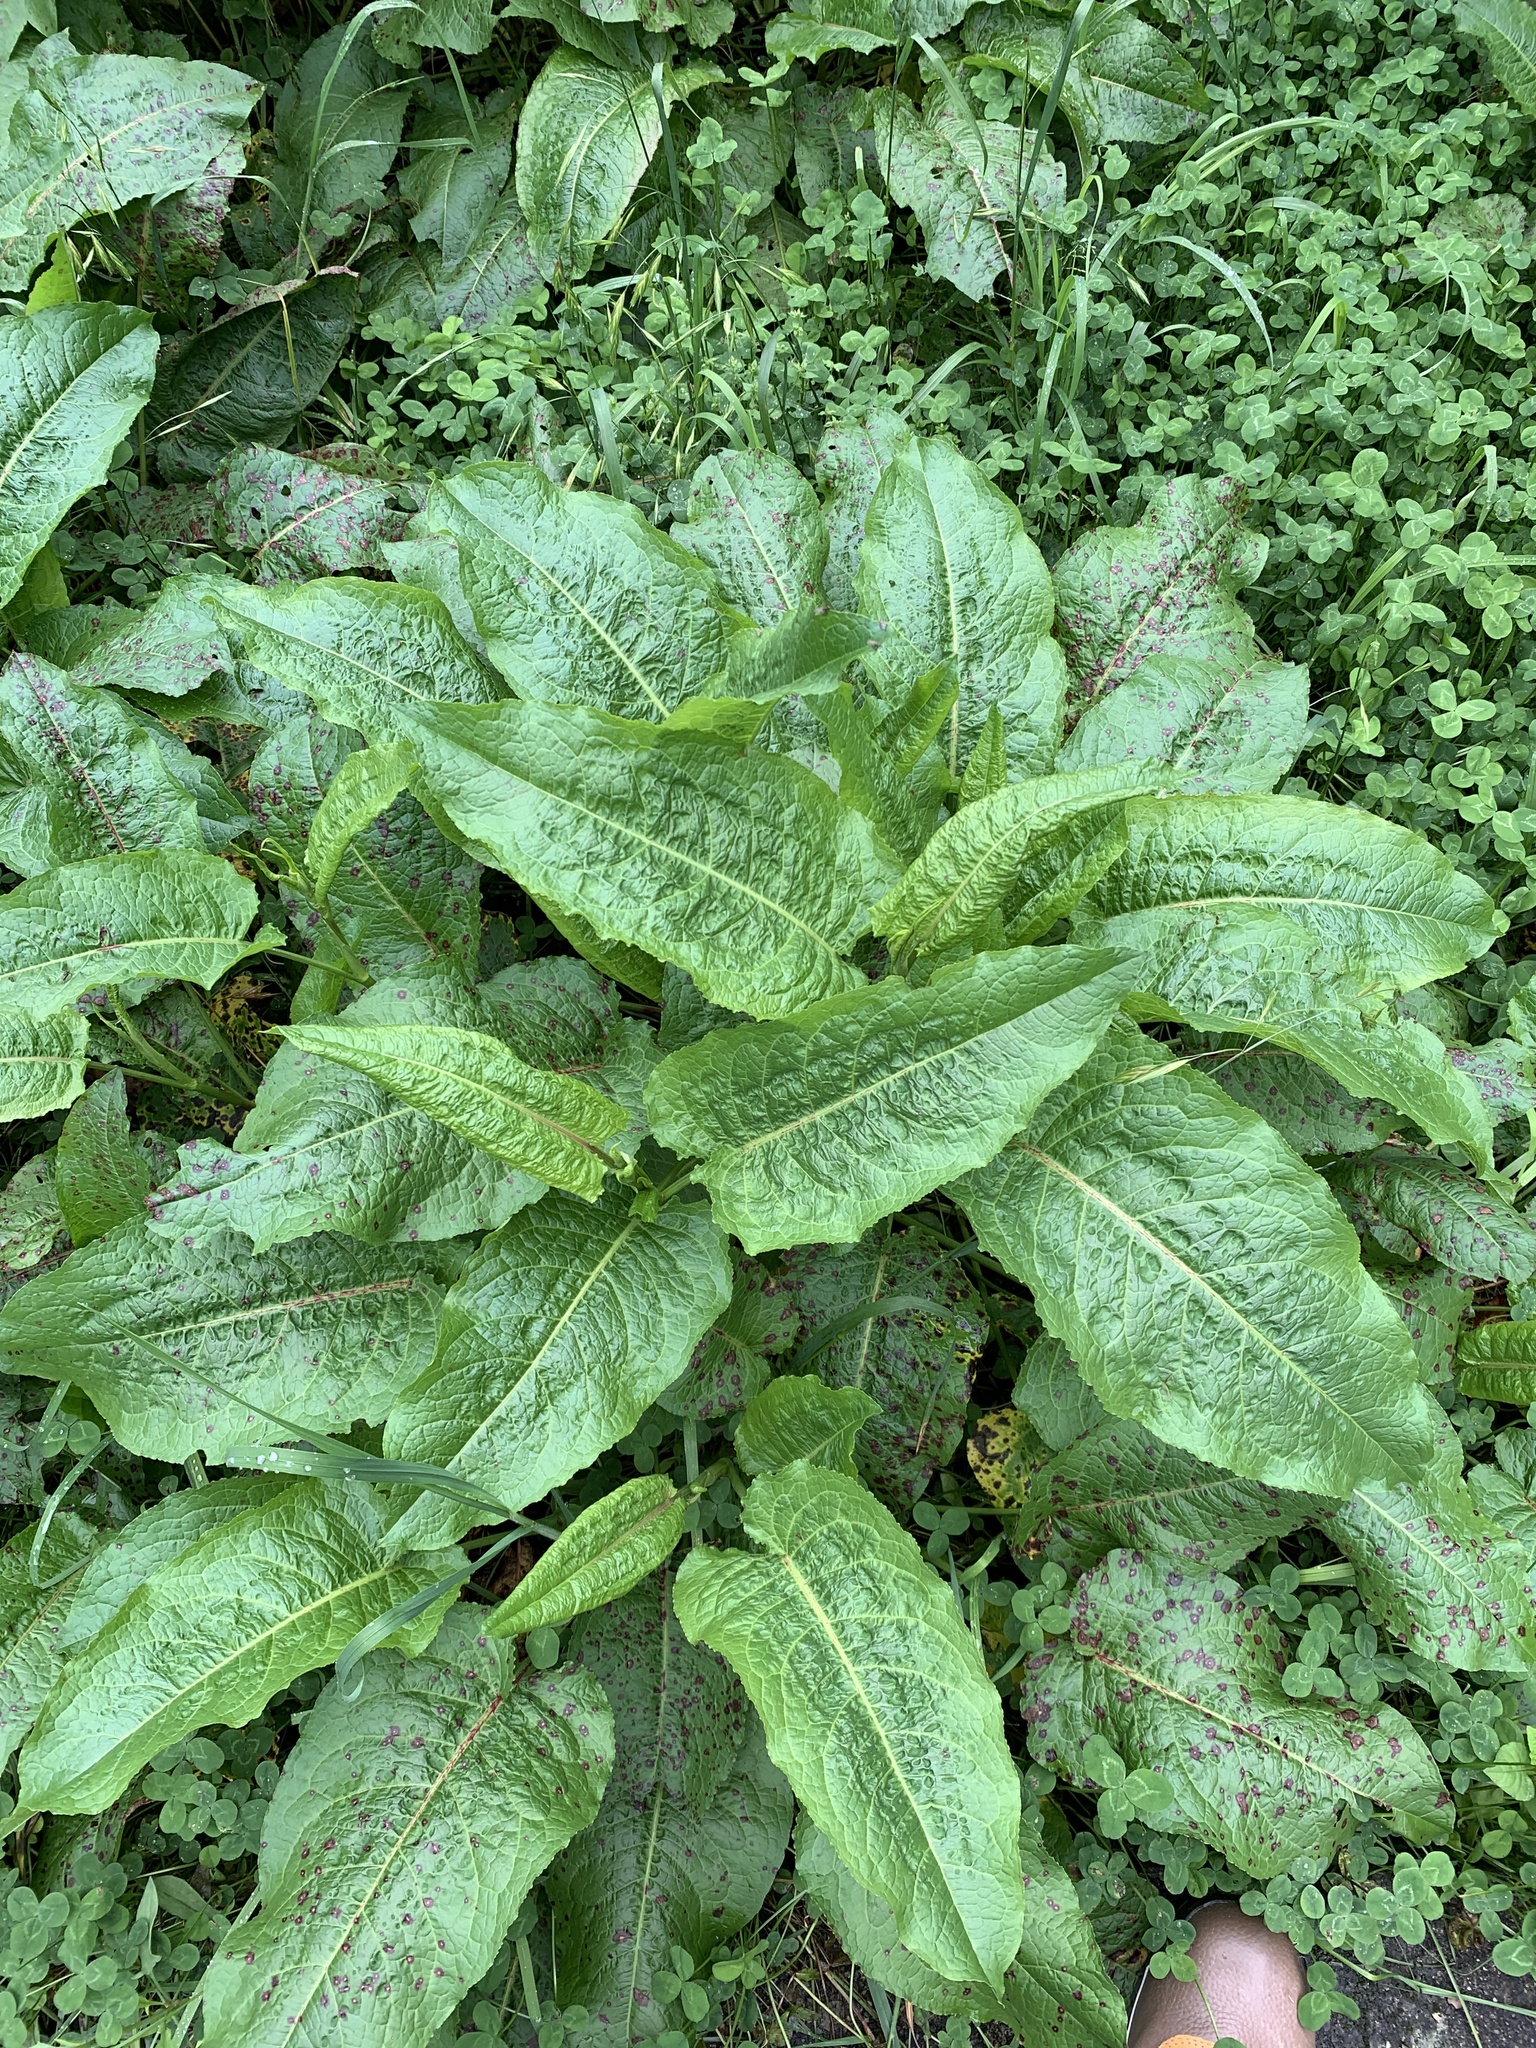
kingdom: Plantae
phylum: Tracheophyta
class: Magnoliopsida
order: Caryophyllales
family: Polygonaceae
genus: Rumex
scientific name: Rumex japonicus
